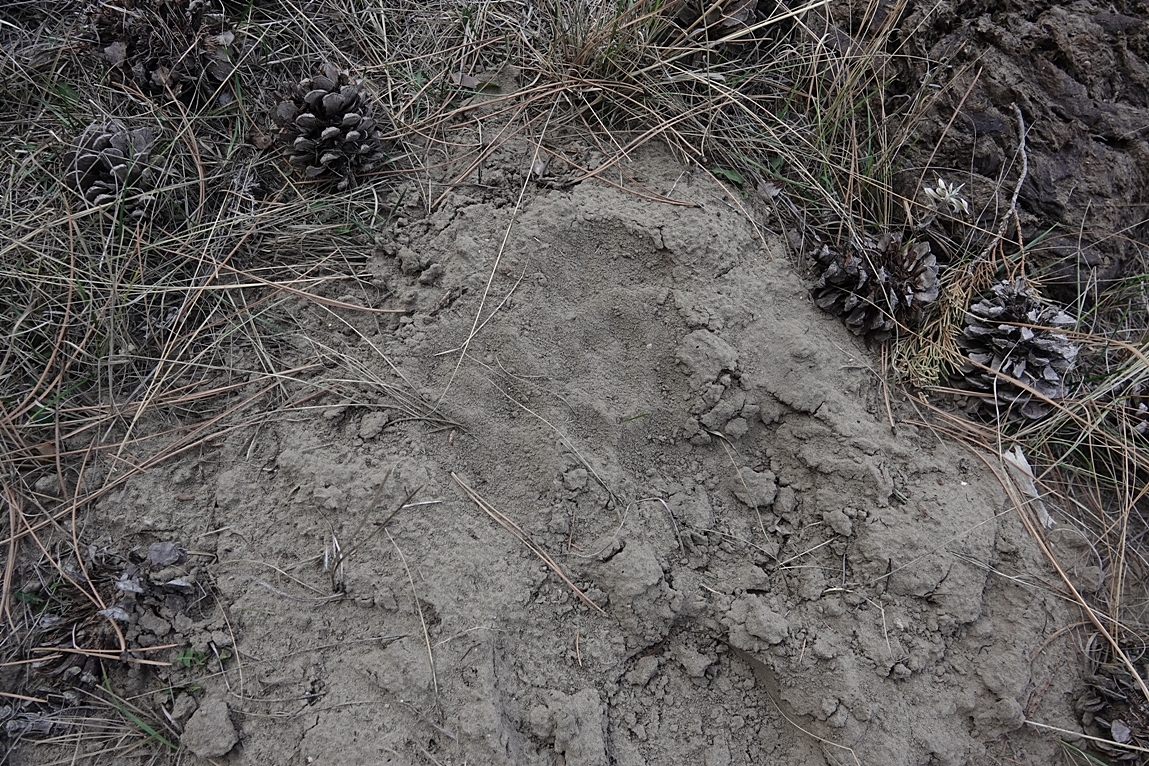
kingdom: Animalia
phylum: Chordata
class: Mammalia
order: Carnivora
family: Felidae
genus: Puma
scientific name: Puma concolor
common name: Puma
